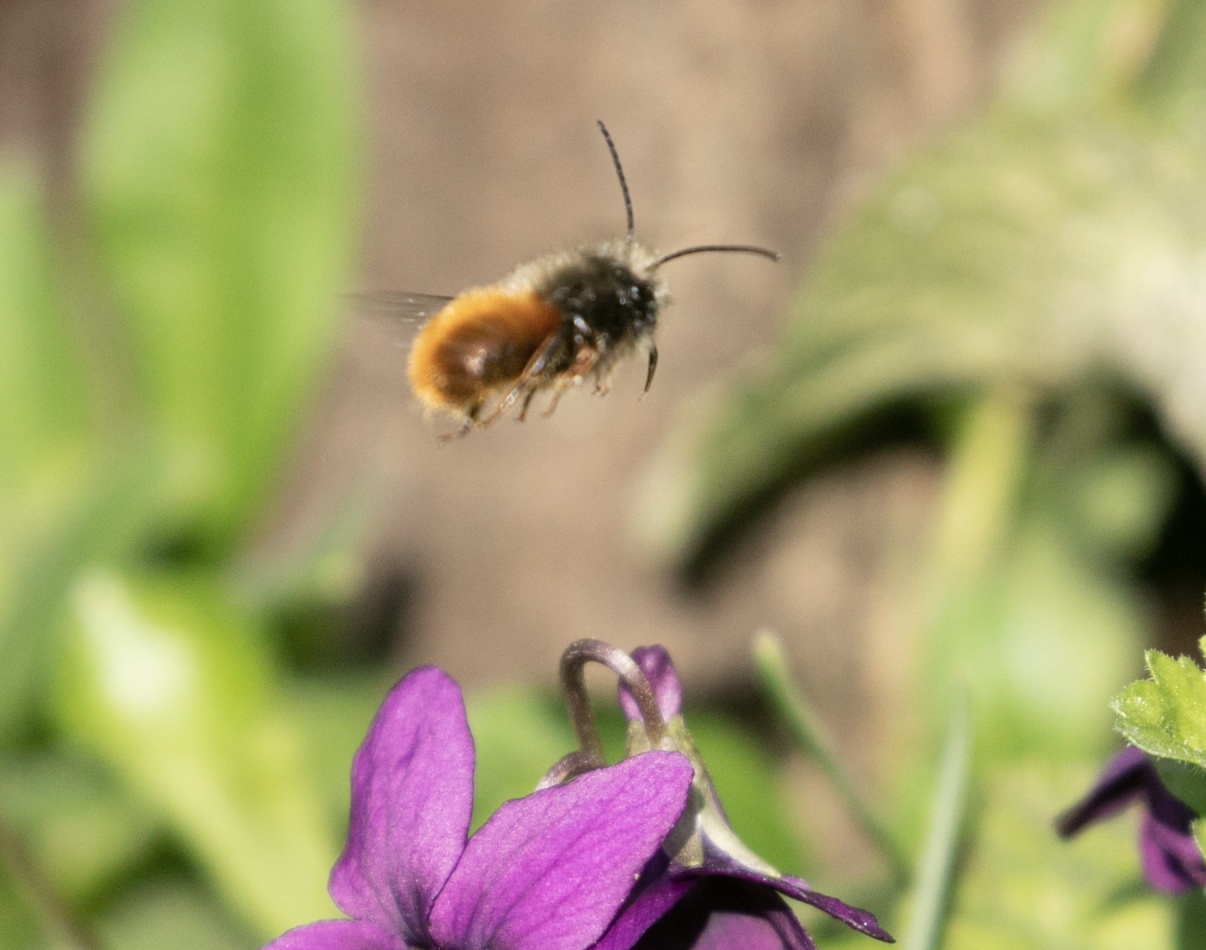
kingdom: Animalia
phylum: Arthropoda
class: Insecta
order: Hymenoptera
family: Megachilidae
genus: Osmia
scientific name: Osmia cornuta
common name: Mason bee
